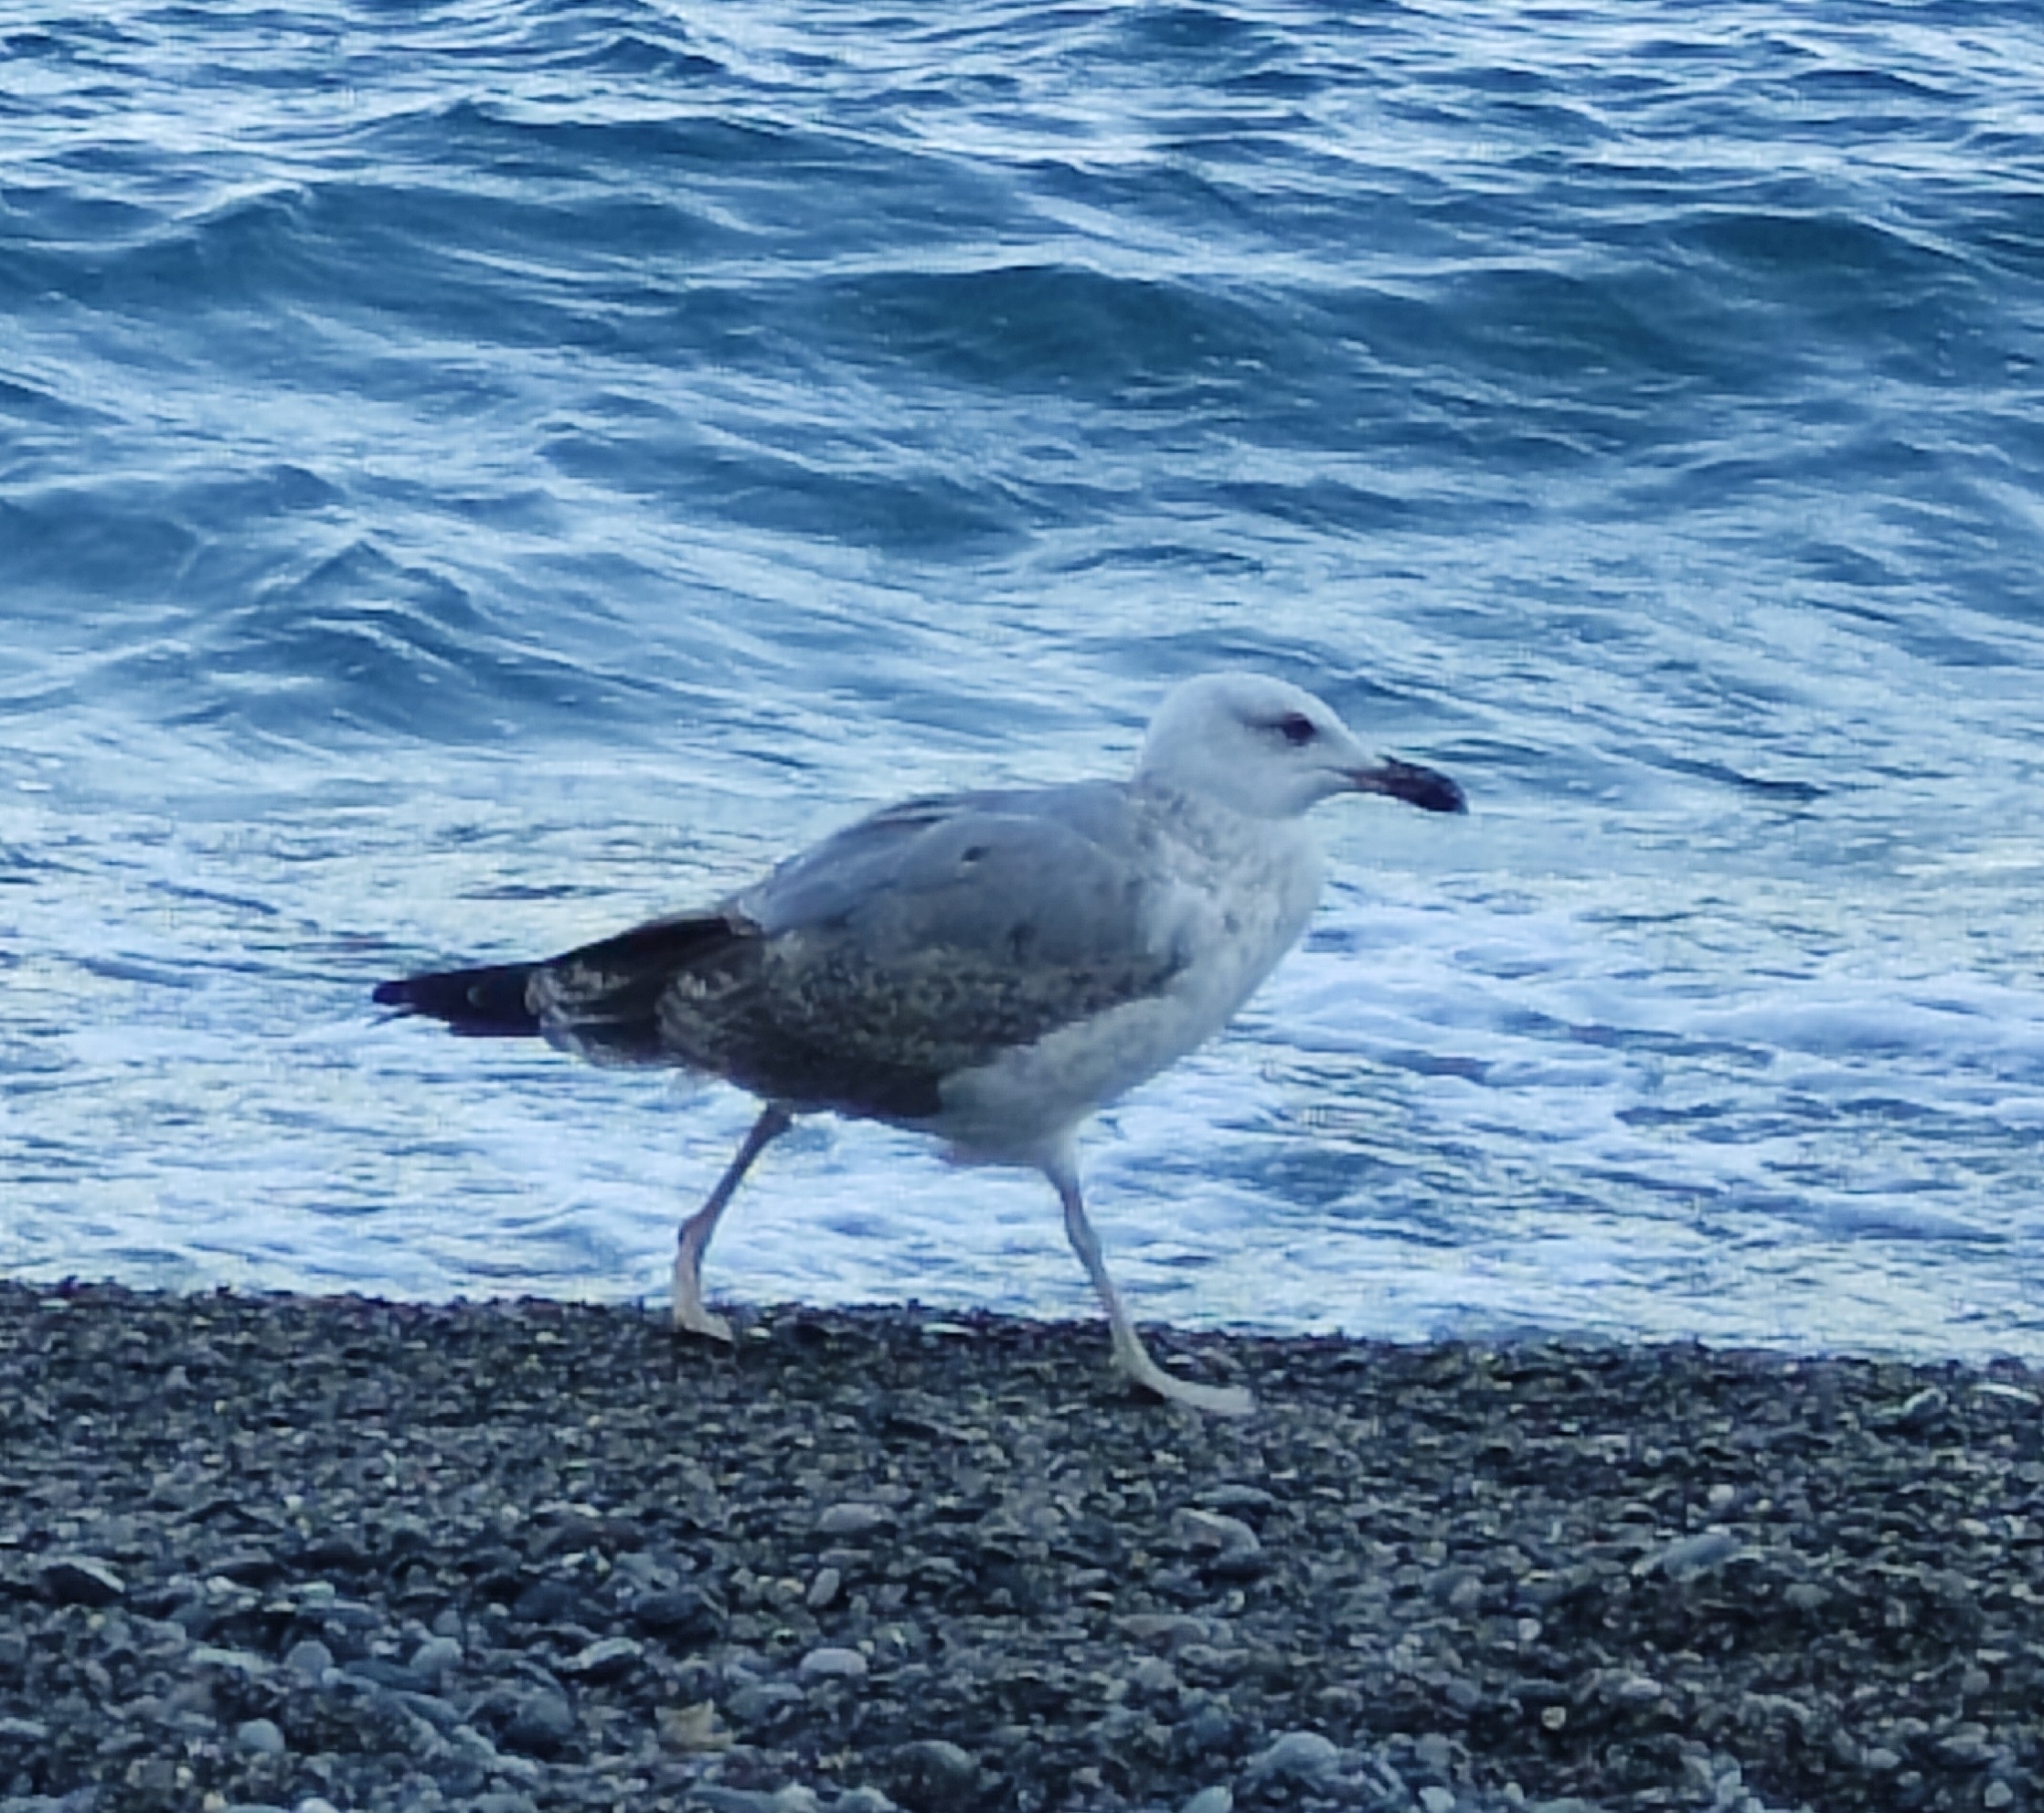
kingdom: Animalia
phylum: Chordata
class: Aves
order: Charadriiformes
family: Laridae
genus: Larus
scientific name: Larus michahellis
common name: Yellow-legged gull
